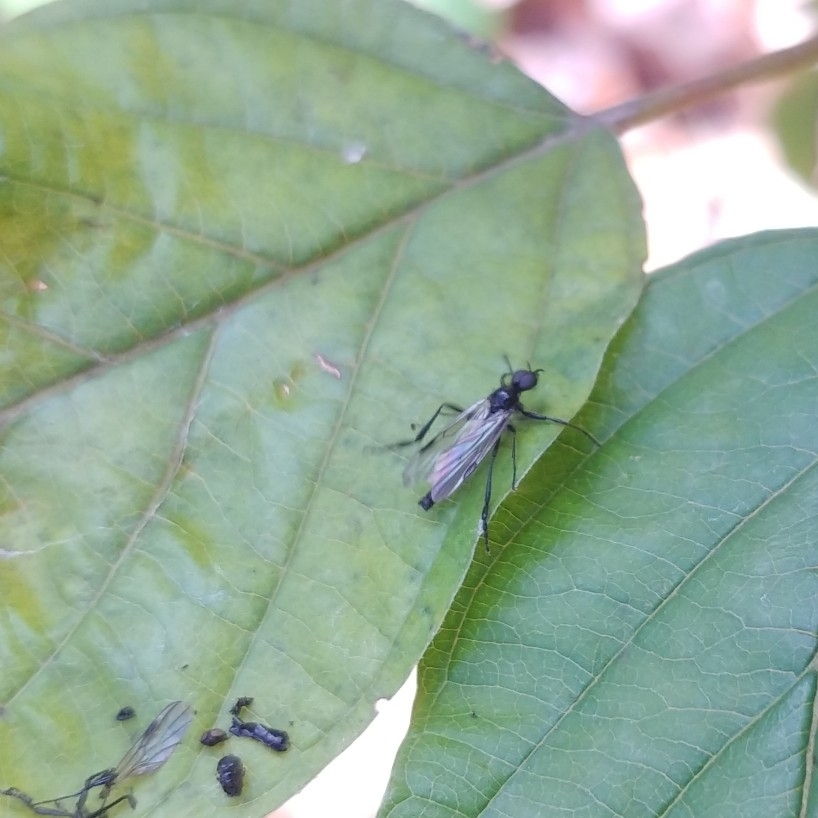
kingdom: Animalia
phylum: Arthropoda
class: Insecta
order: Diptera
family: Bibionidae
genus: Bibio
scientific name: Bibio slossonae
